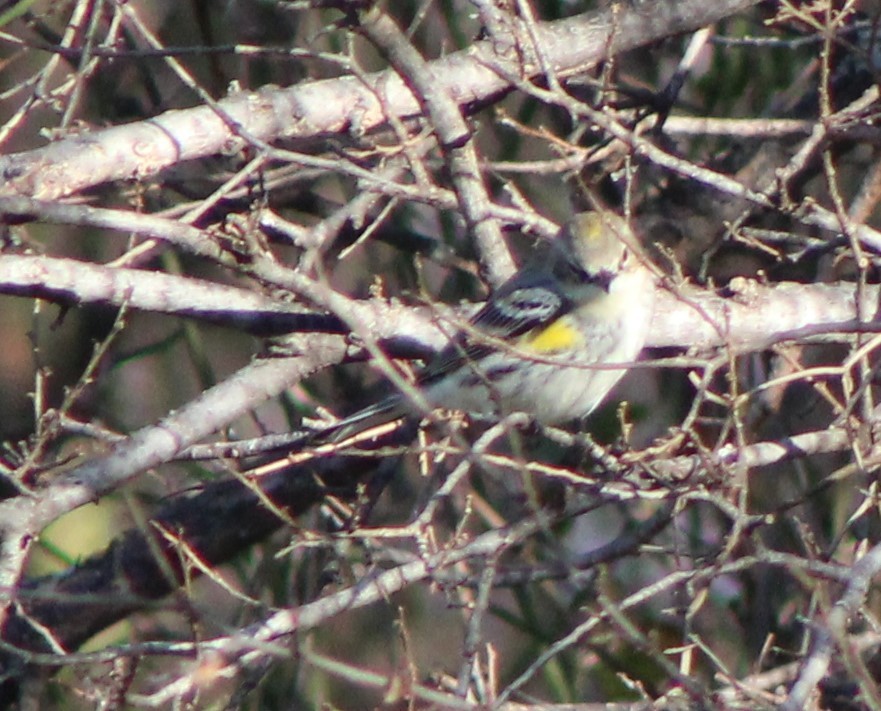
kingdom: Animalia
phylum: Chordata
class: Aves
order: Passeriformes
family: Parulidae
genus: Setophaga
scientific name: Setophaga coronata
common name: Myrtle warbler
